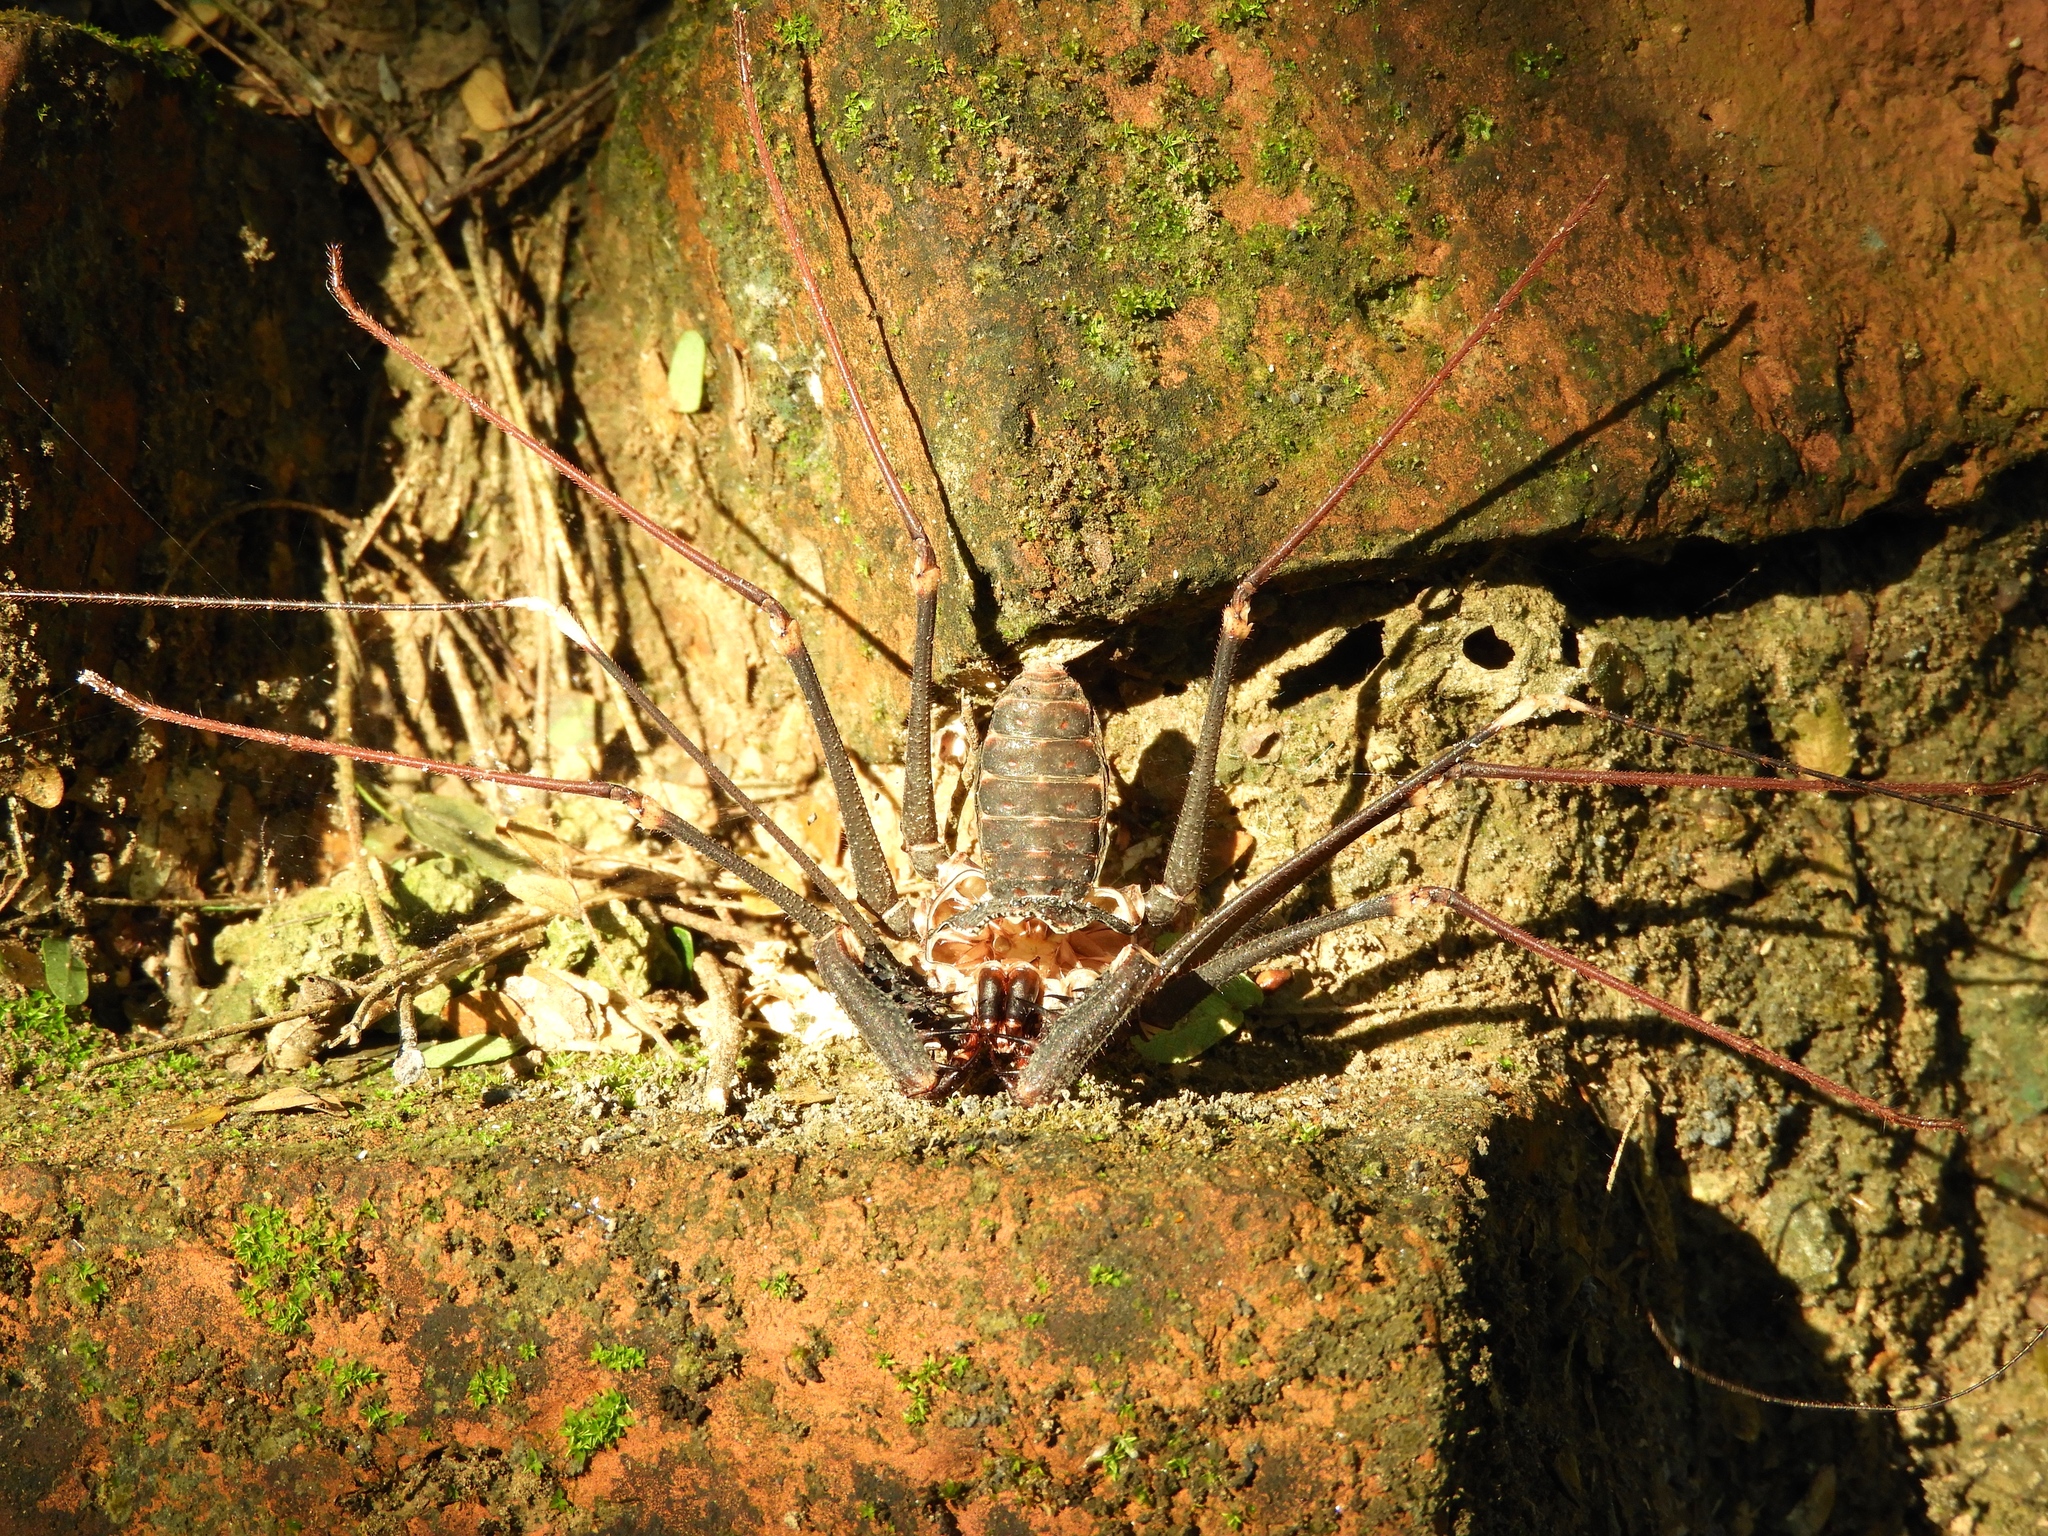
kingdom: Animalia
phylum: Arthropoda
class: Arachnida
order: Amblypygi
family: Phrynidae
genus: Acanthophrynus
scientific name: Acanthophrynus coronatus
